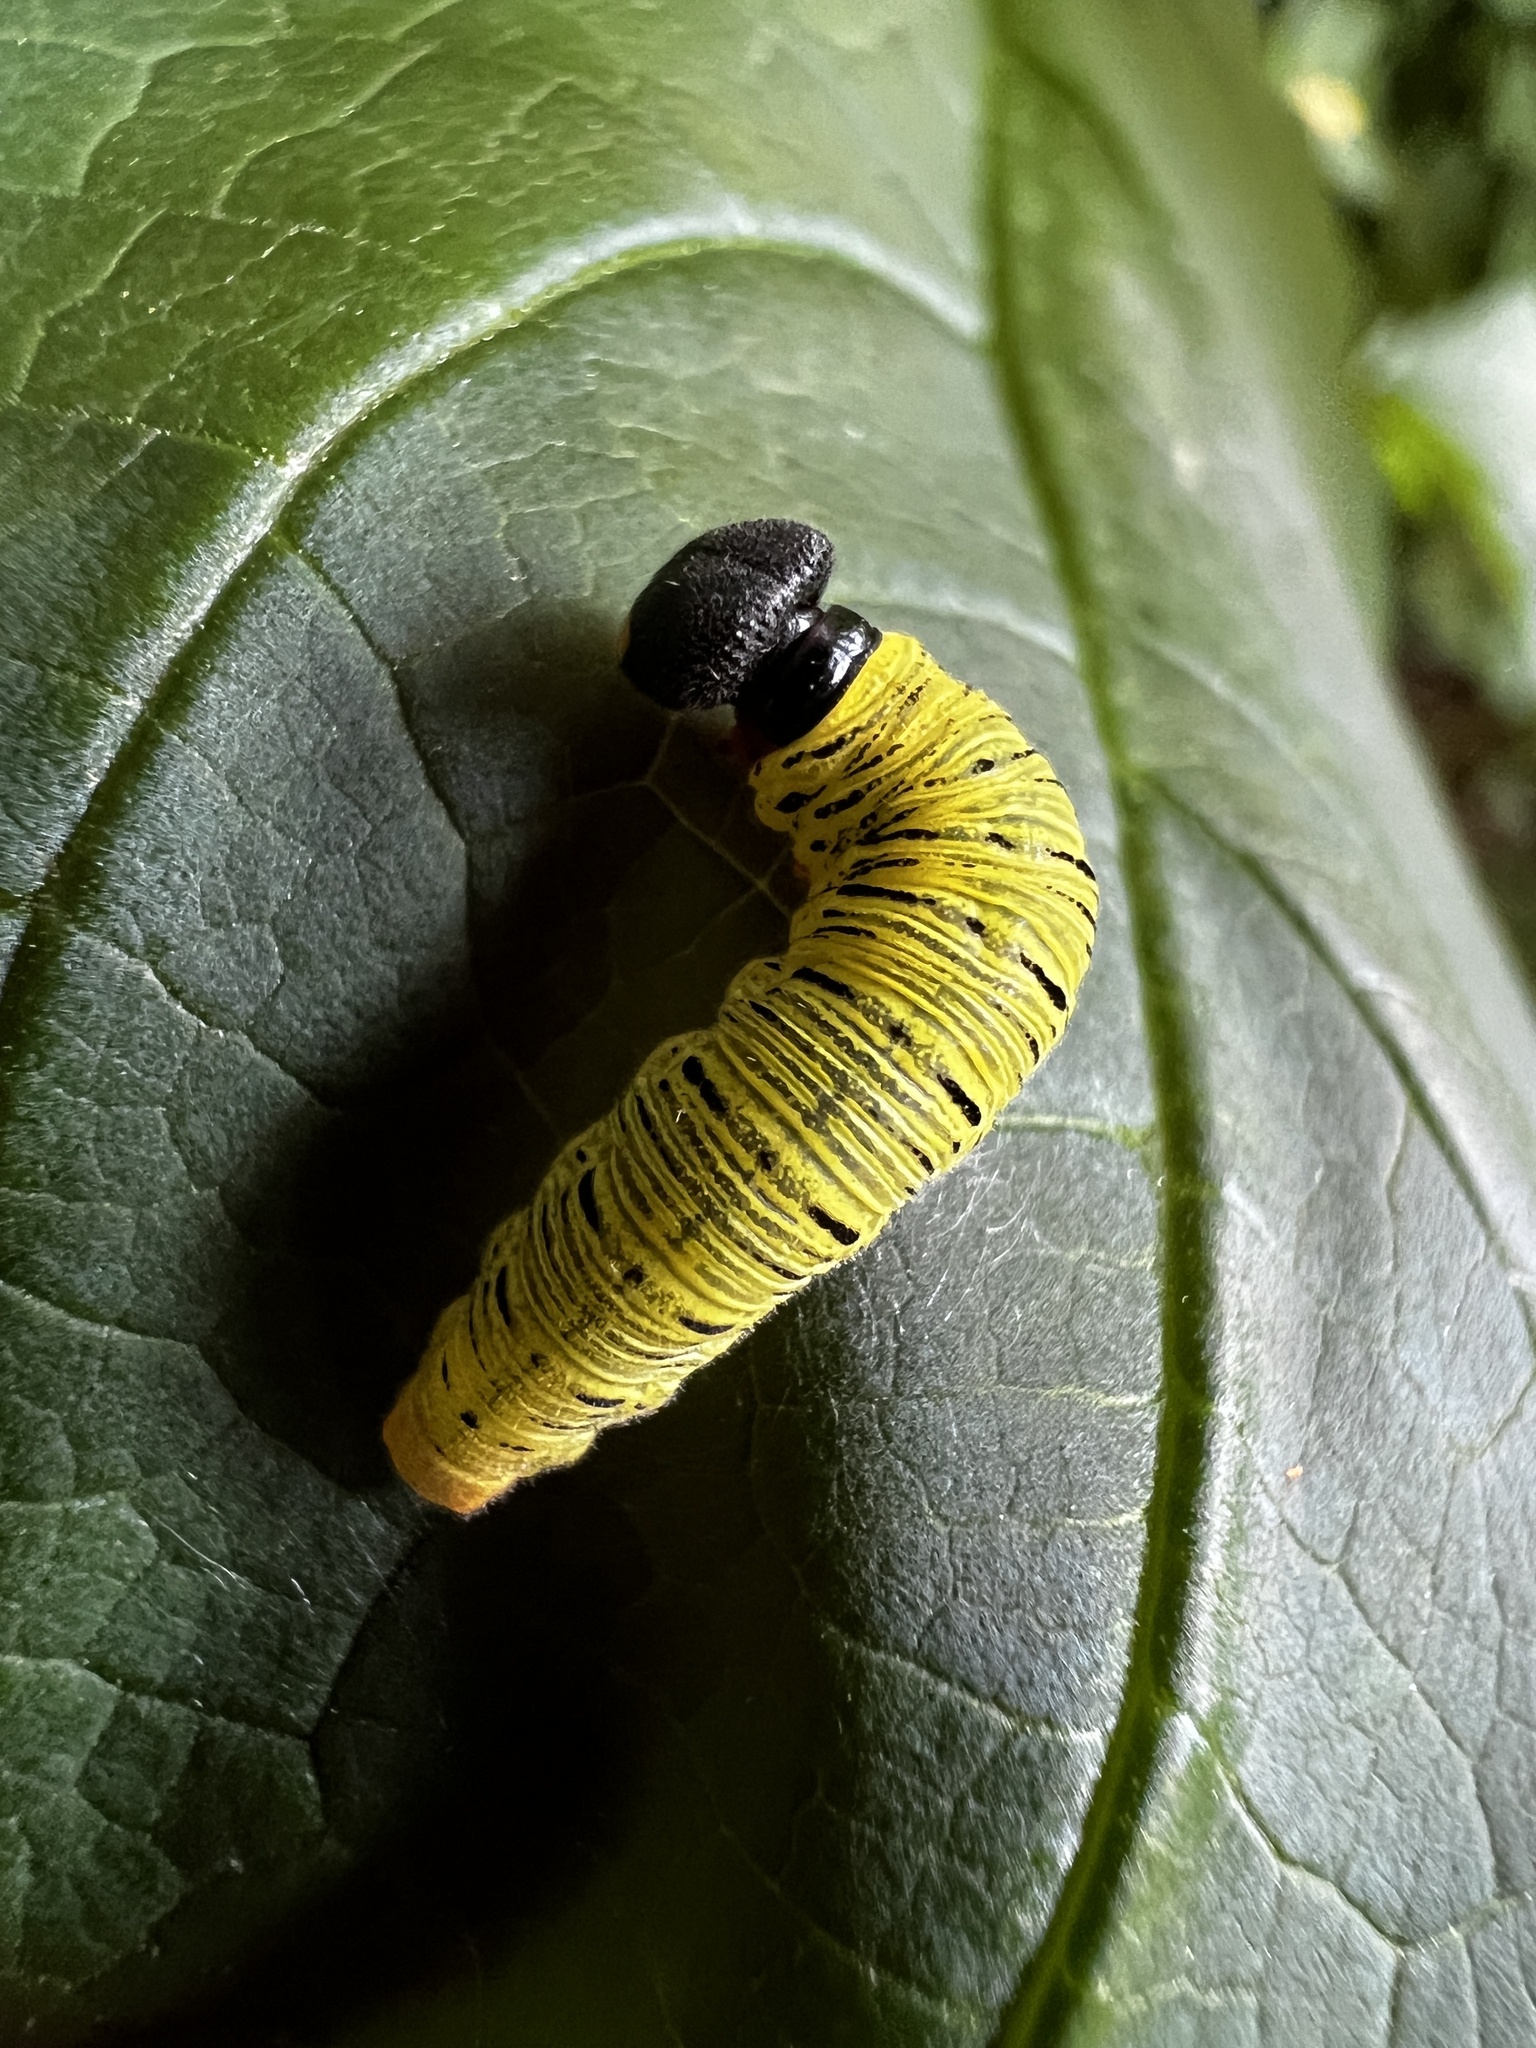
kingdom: Animalia
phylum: Arthropoda
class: Insecta
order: Lepidoptera
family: Hesperiidae
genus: Epargyreus
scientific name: Epargyreus clarus
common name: Silver-spotted skipper
